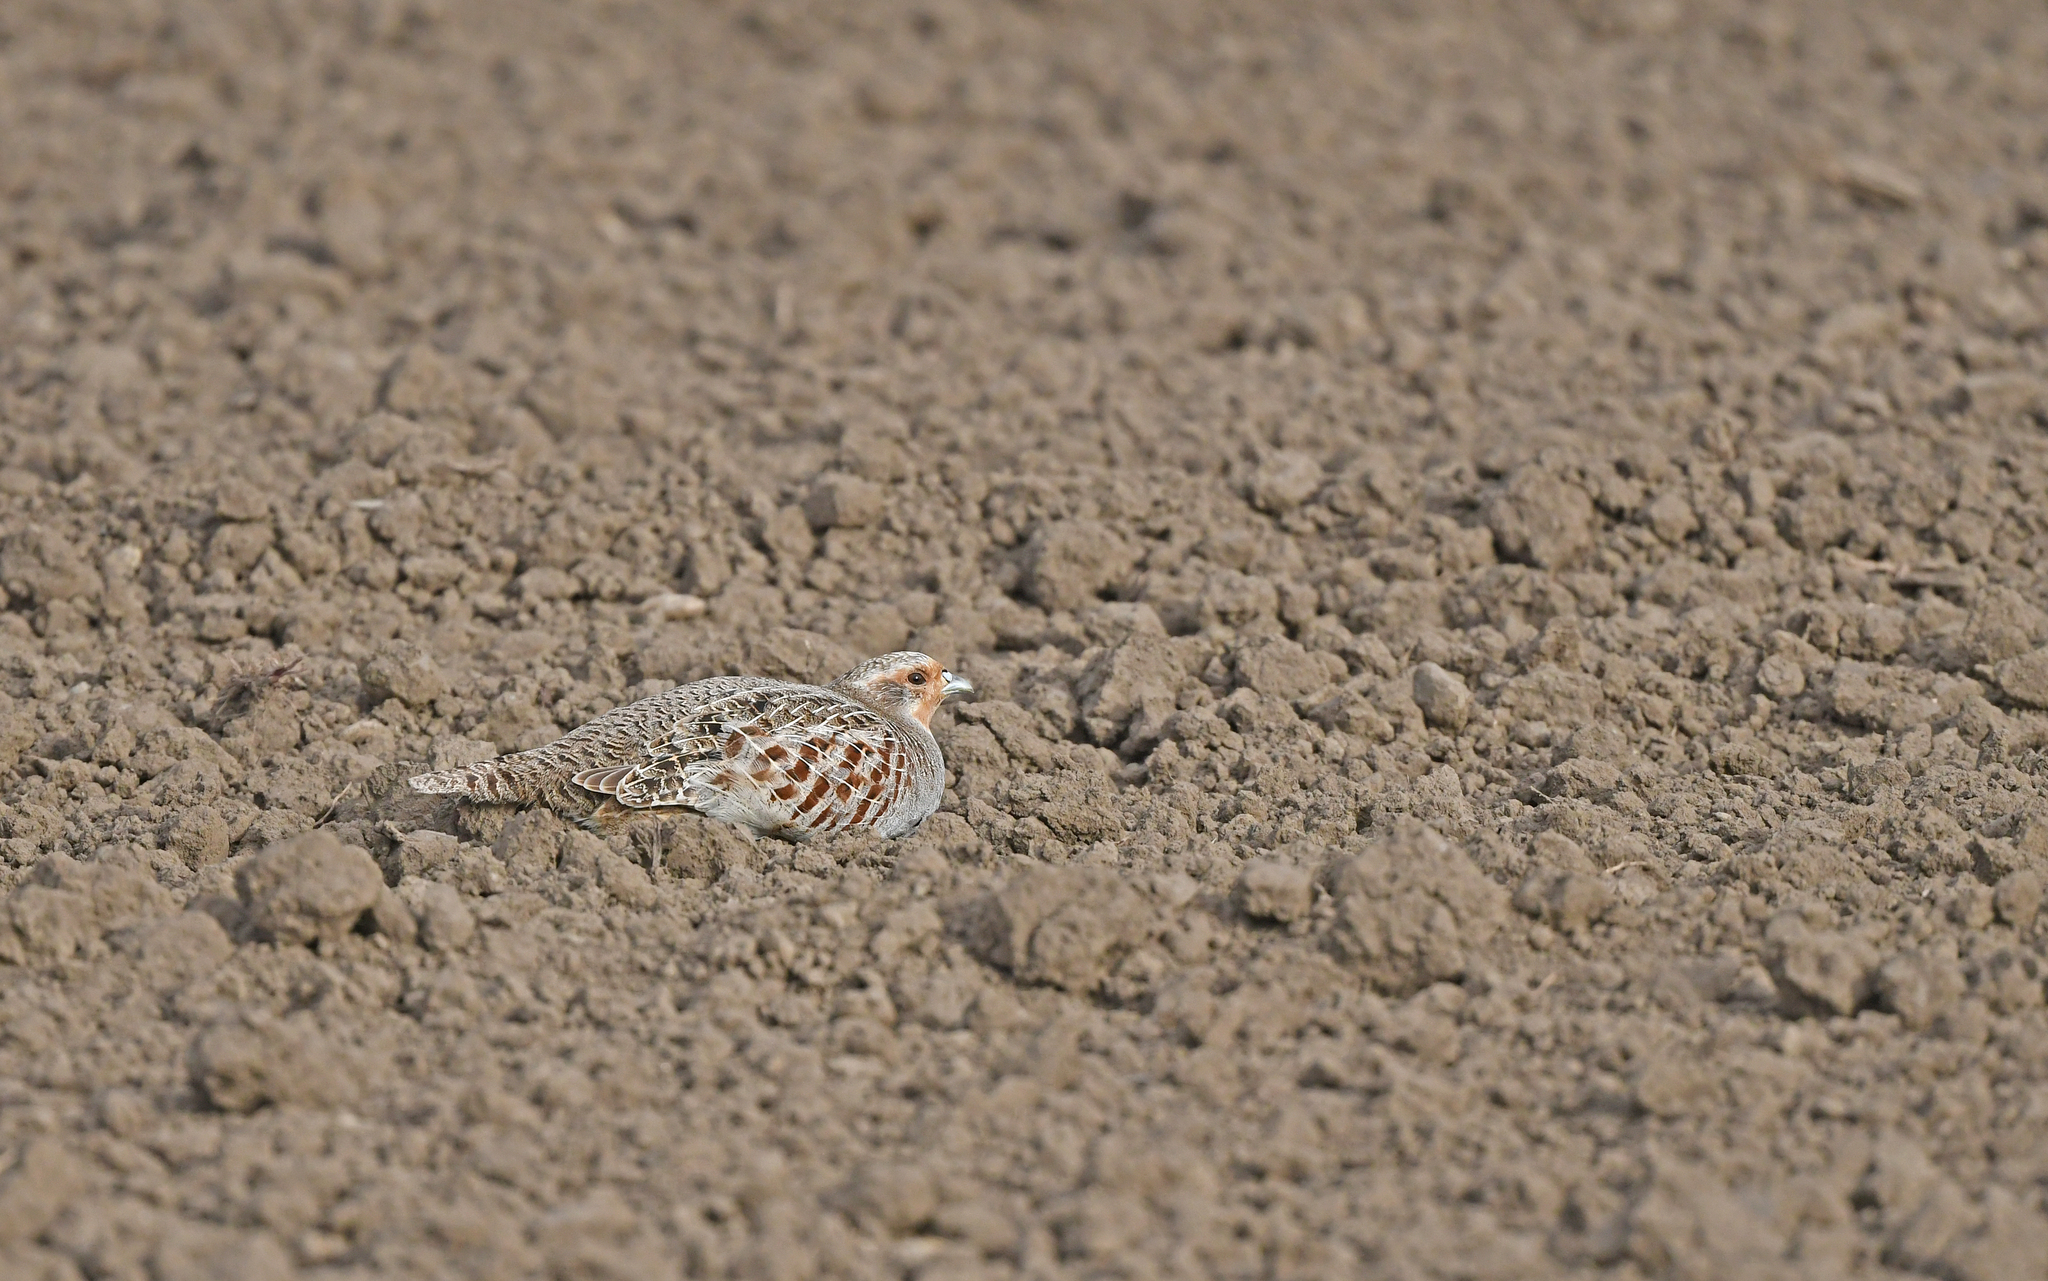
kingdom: Animalia
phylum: Chordata
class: Aves
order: Galliformes
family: Phasianidae
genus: Perdix
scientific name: Perdix perdix
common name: Grey partridge
